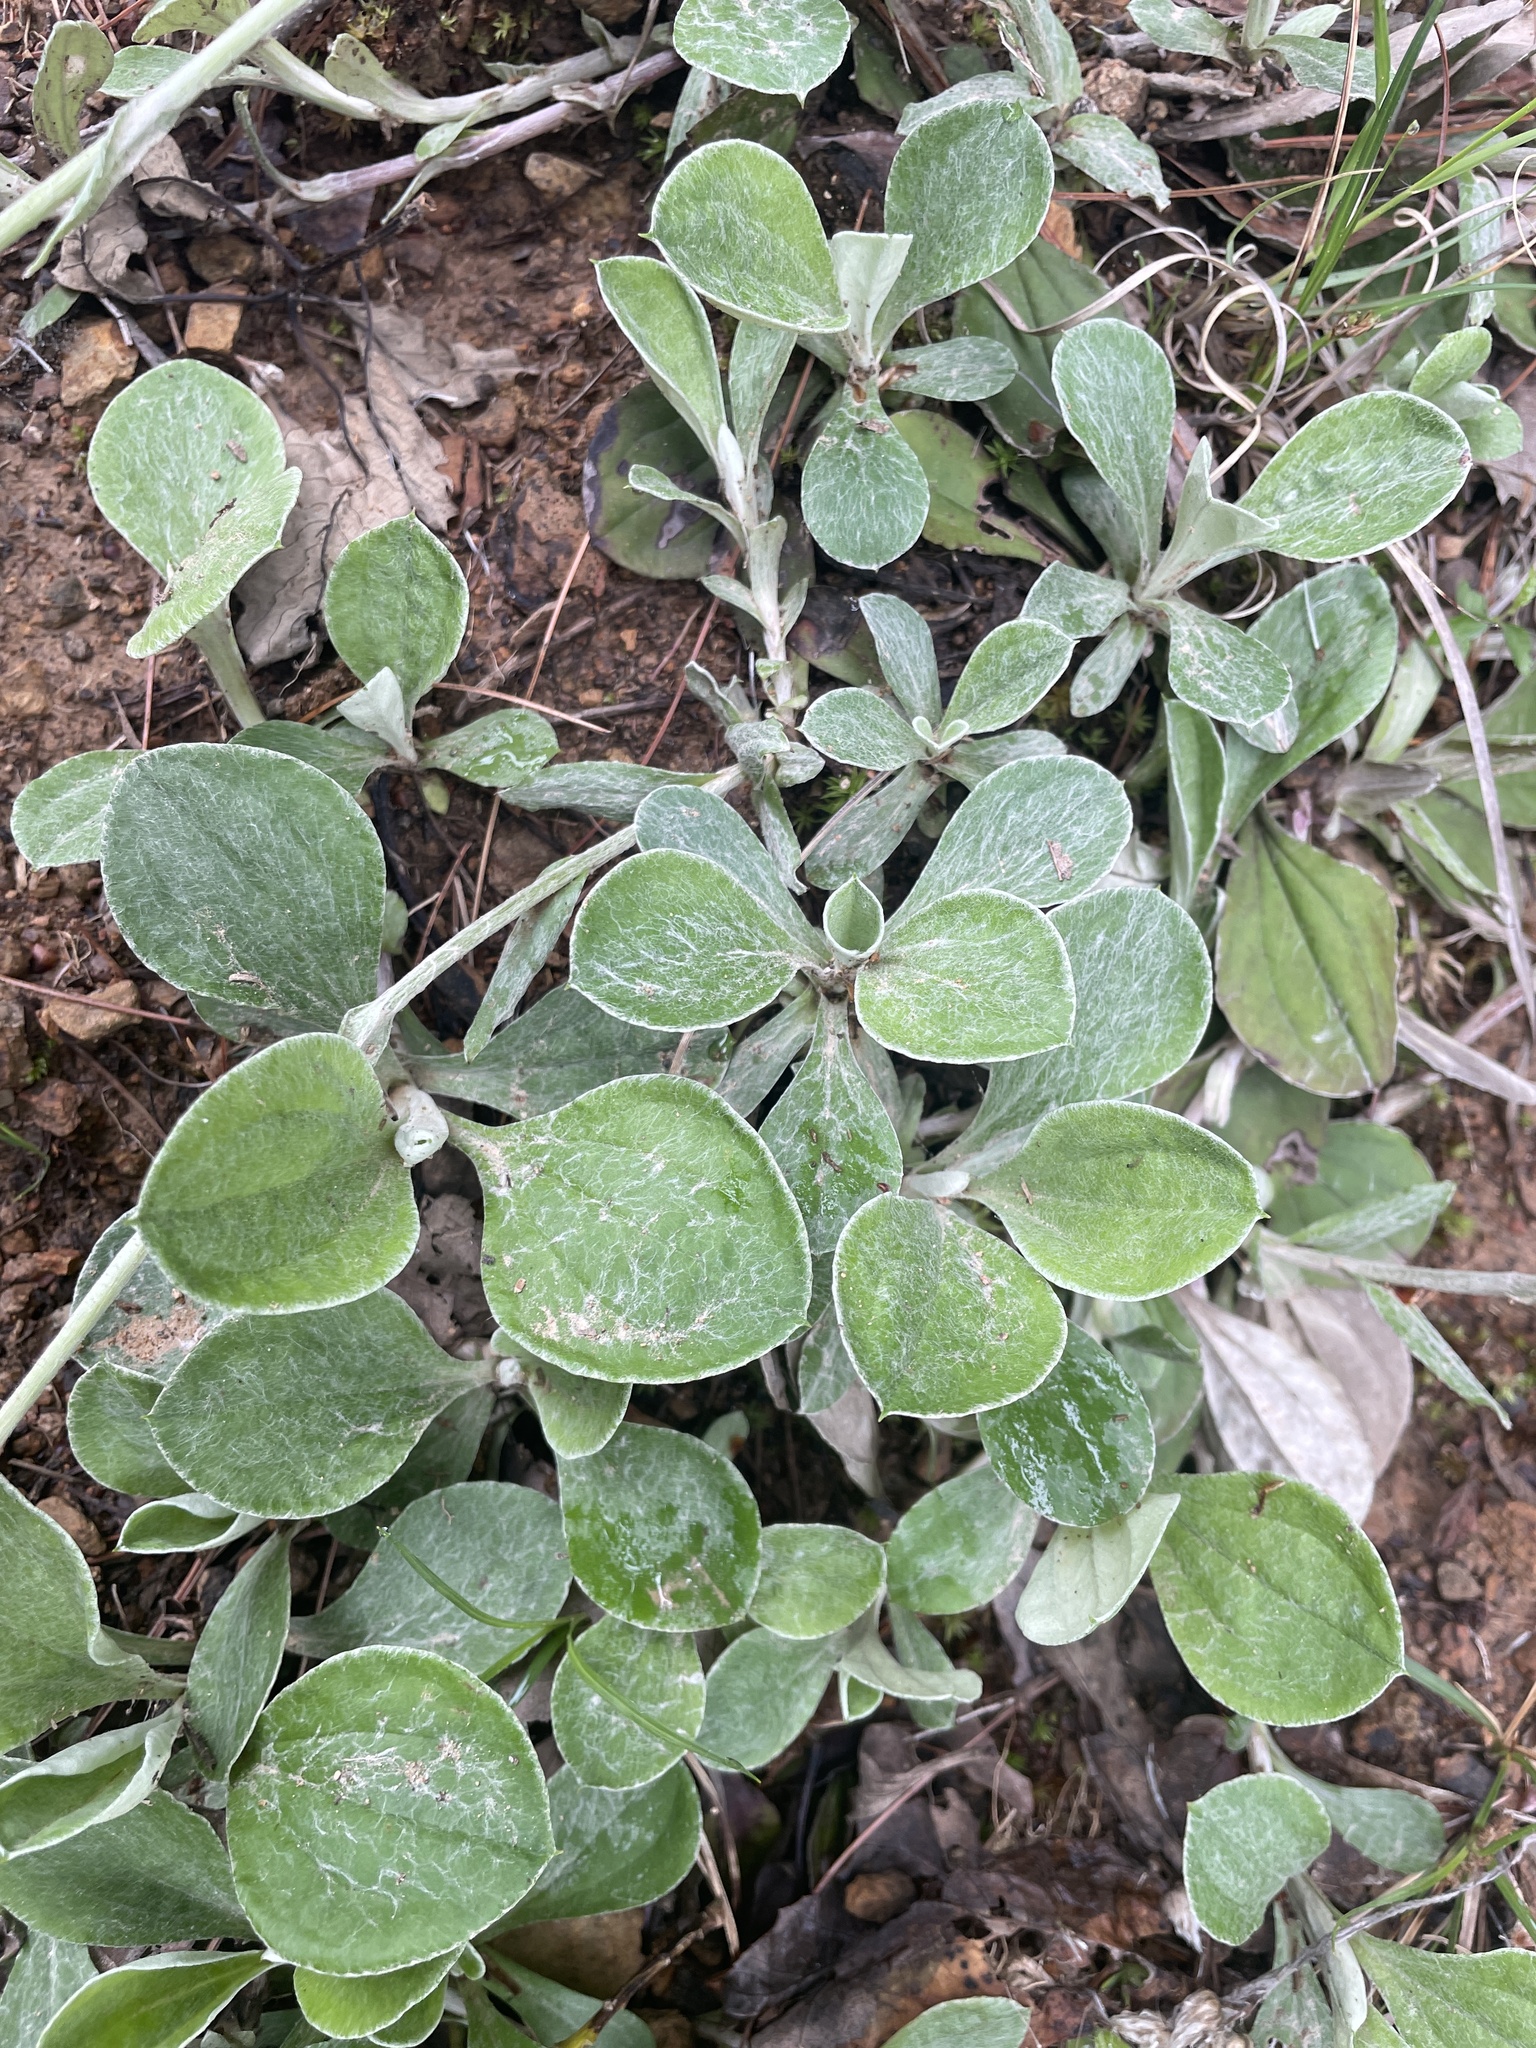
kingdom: Plantae
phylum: Tracheophyta
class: Magnoliopsida
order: Asterales
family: Asteraceae
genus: Antennaria
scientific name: Antennaria plantaginifolia
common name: Plantain-leaved pussytoes
